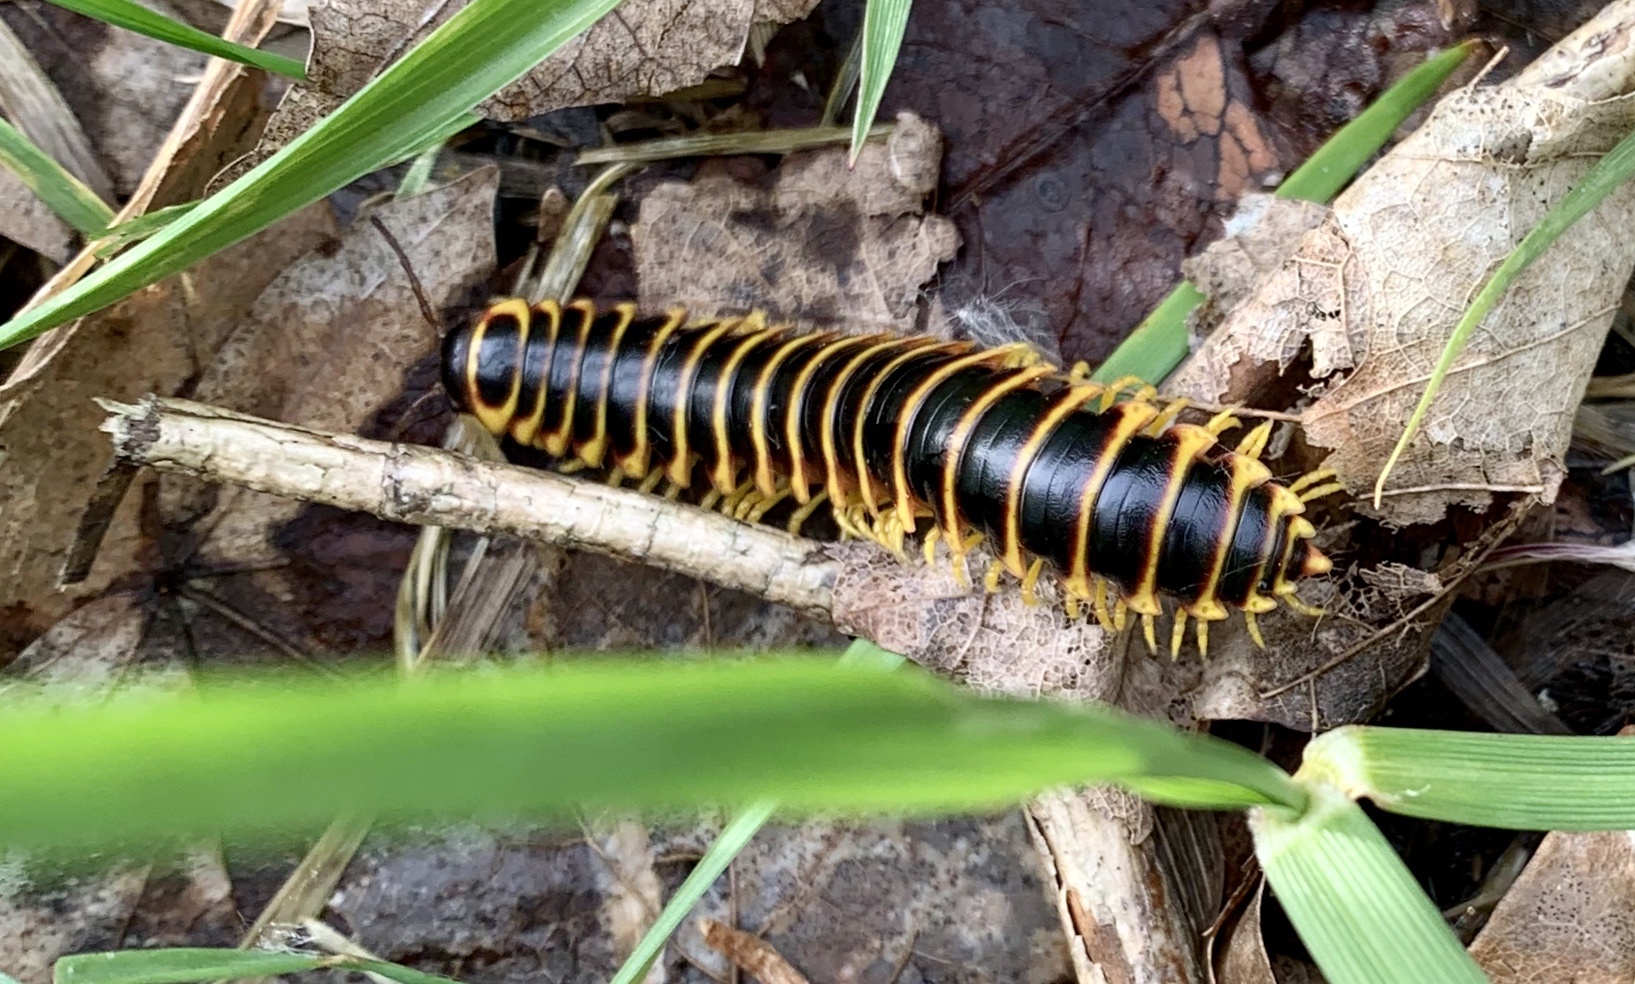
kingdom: Animalia
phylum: Arthropoda
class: Diplopoda
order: Polydesmida
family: Xystodesmidae
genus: Apheloria
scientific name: Apheloria virginiensis
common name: Black-and-gold flat millipede
